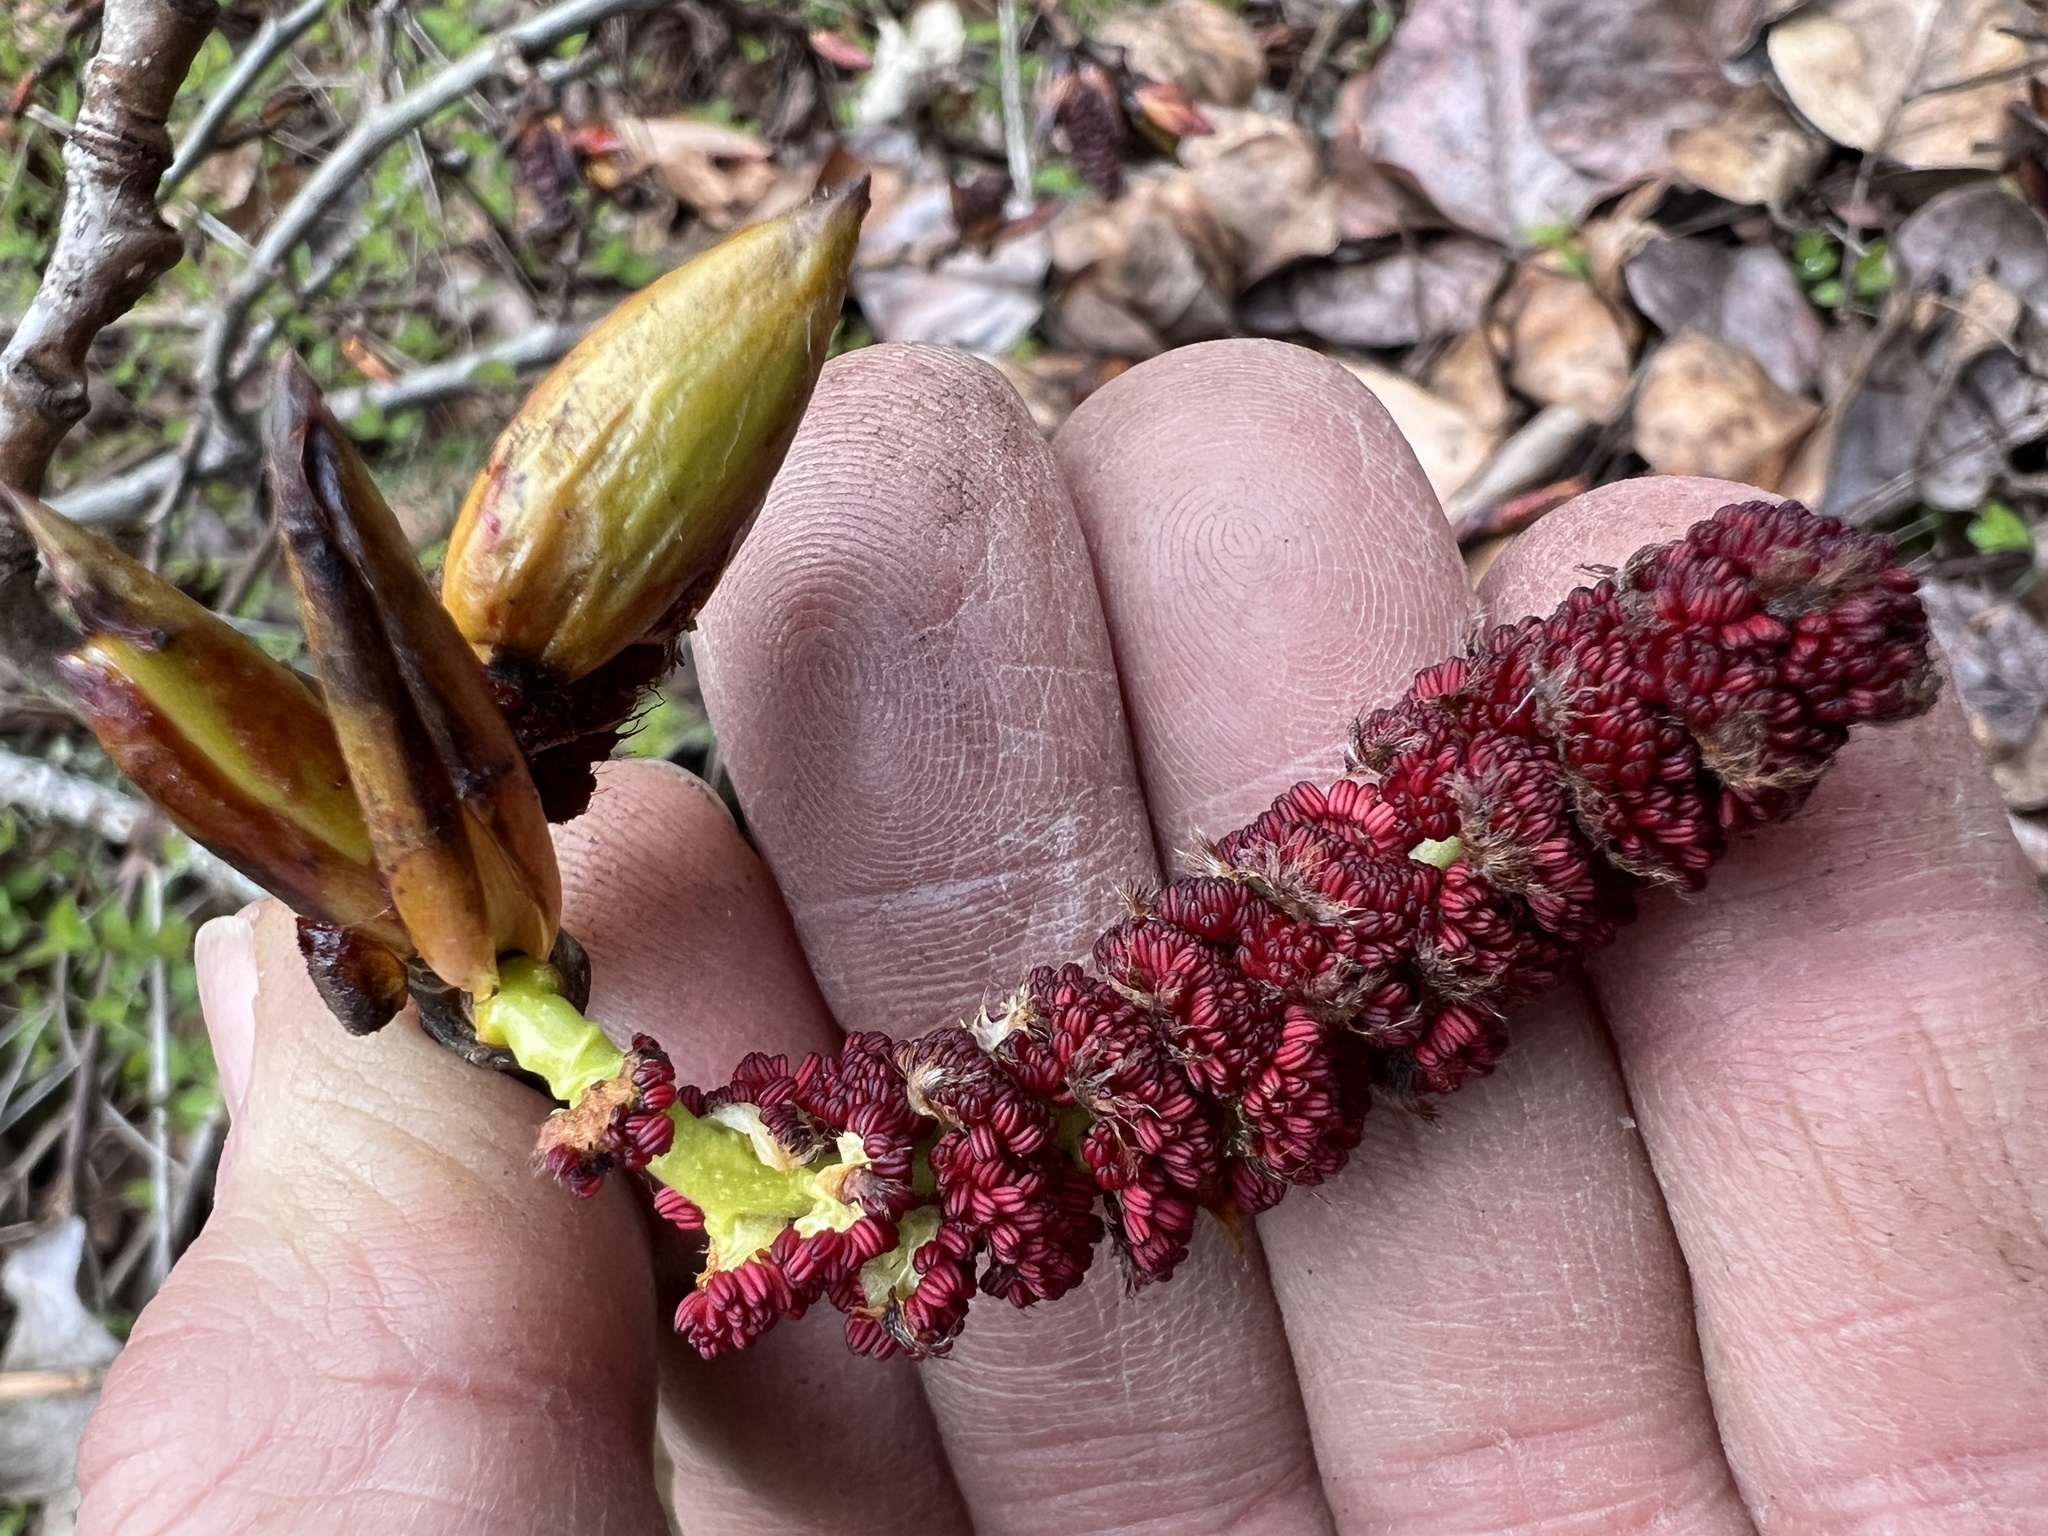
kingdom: Plantae
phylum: Tracheophyta
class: Magnoliopsida
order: Malpighiales
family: Salicaceae
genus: Populus
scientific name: Populus trichocarpa
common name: Black cottonwood
